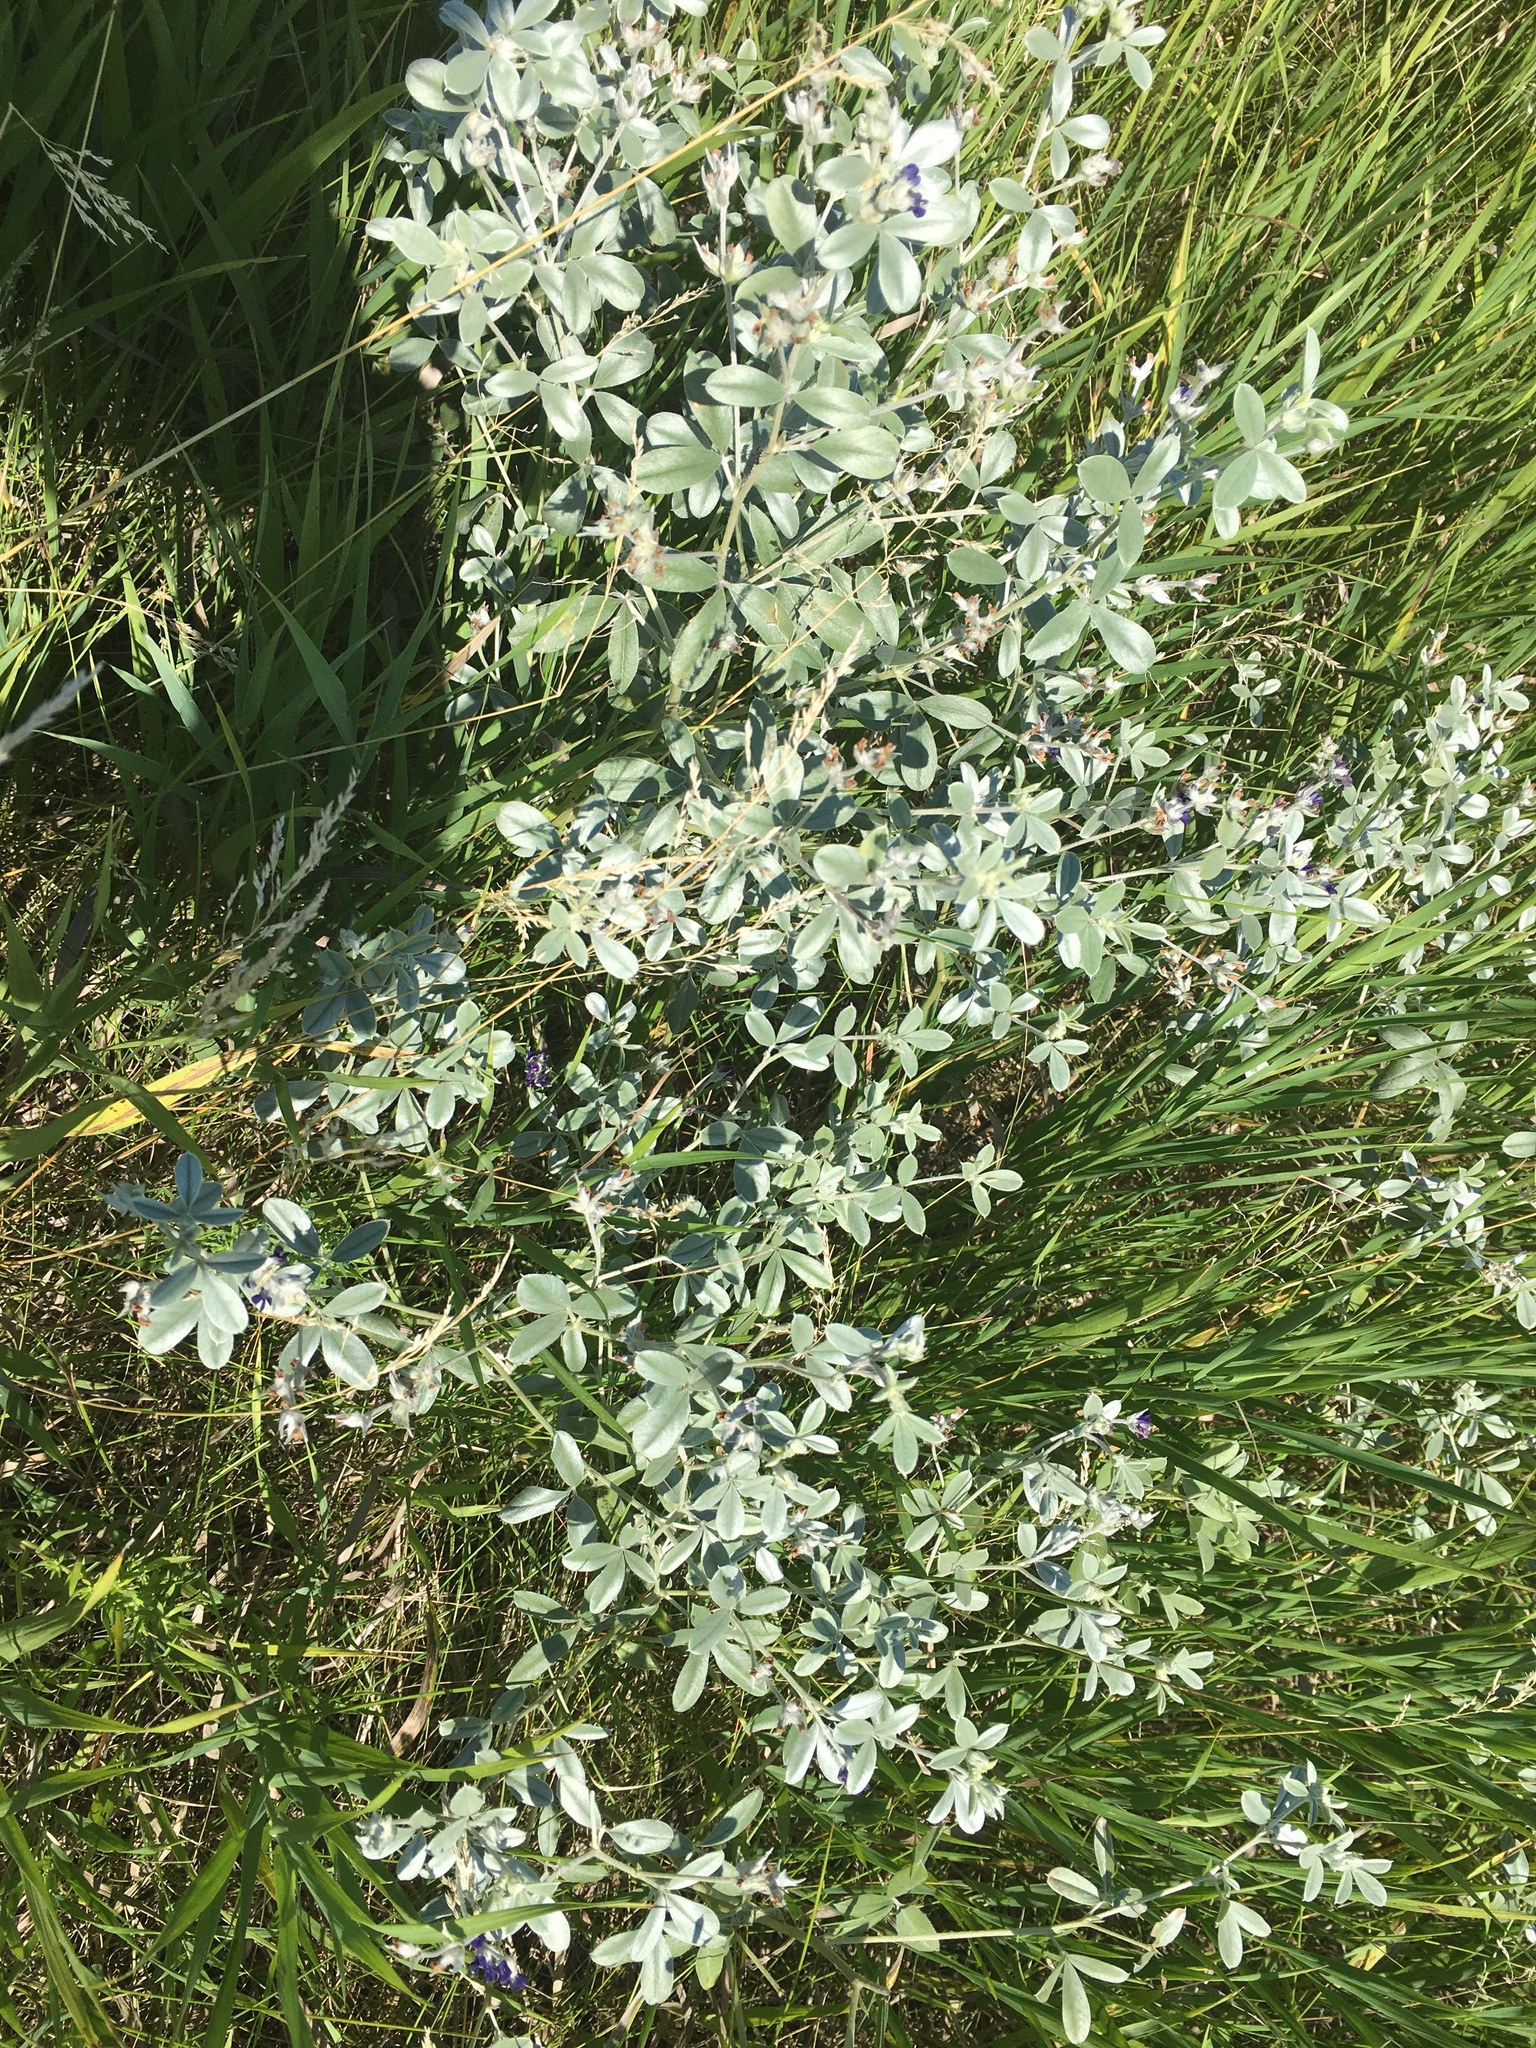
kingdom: Plantae
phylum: Tracheophyta
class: Magnoliopsida
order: Fabales
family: Fabaceae
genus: Pediomelum
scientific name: Pediomelum argophyllum
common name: Silver-leaved indian breadroot
